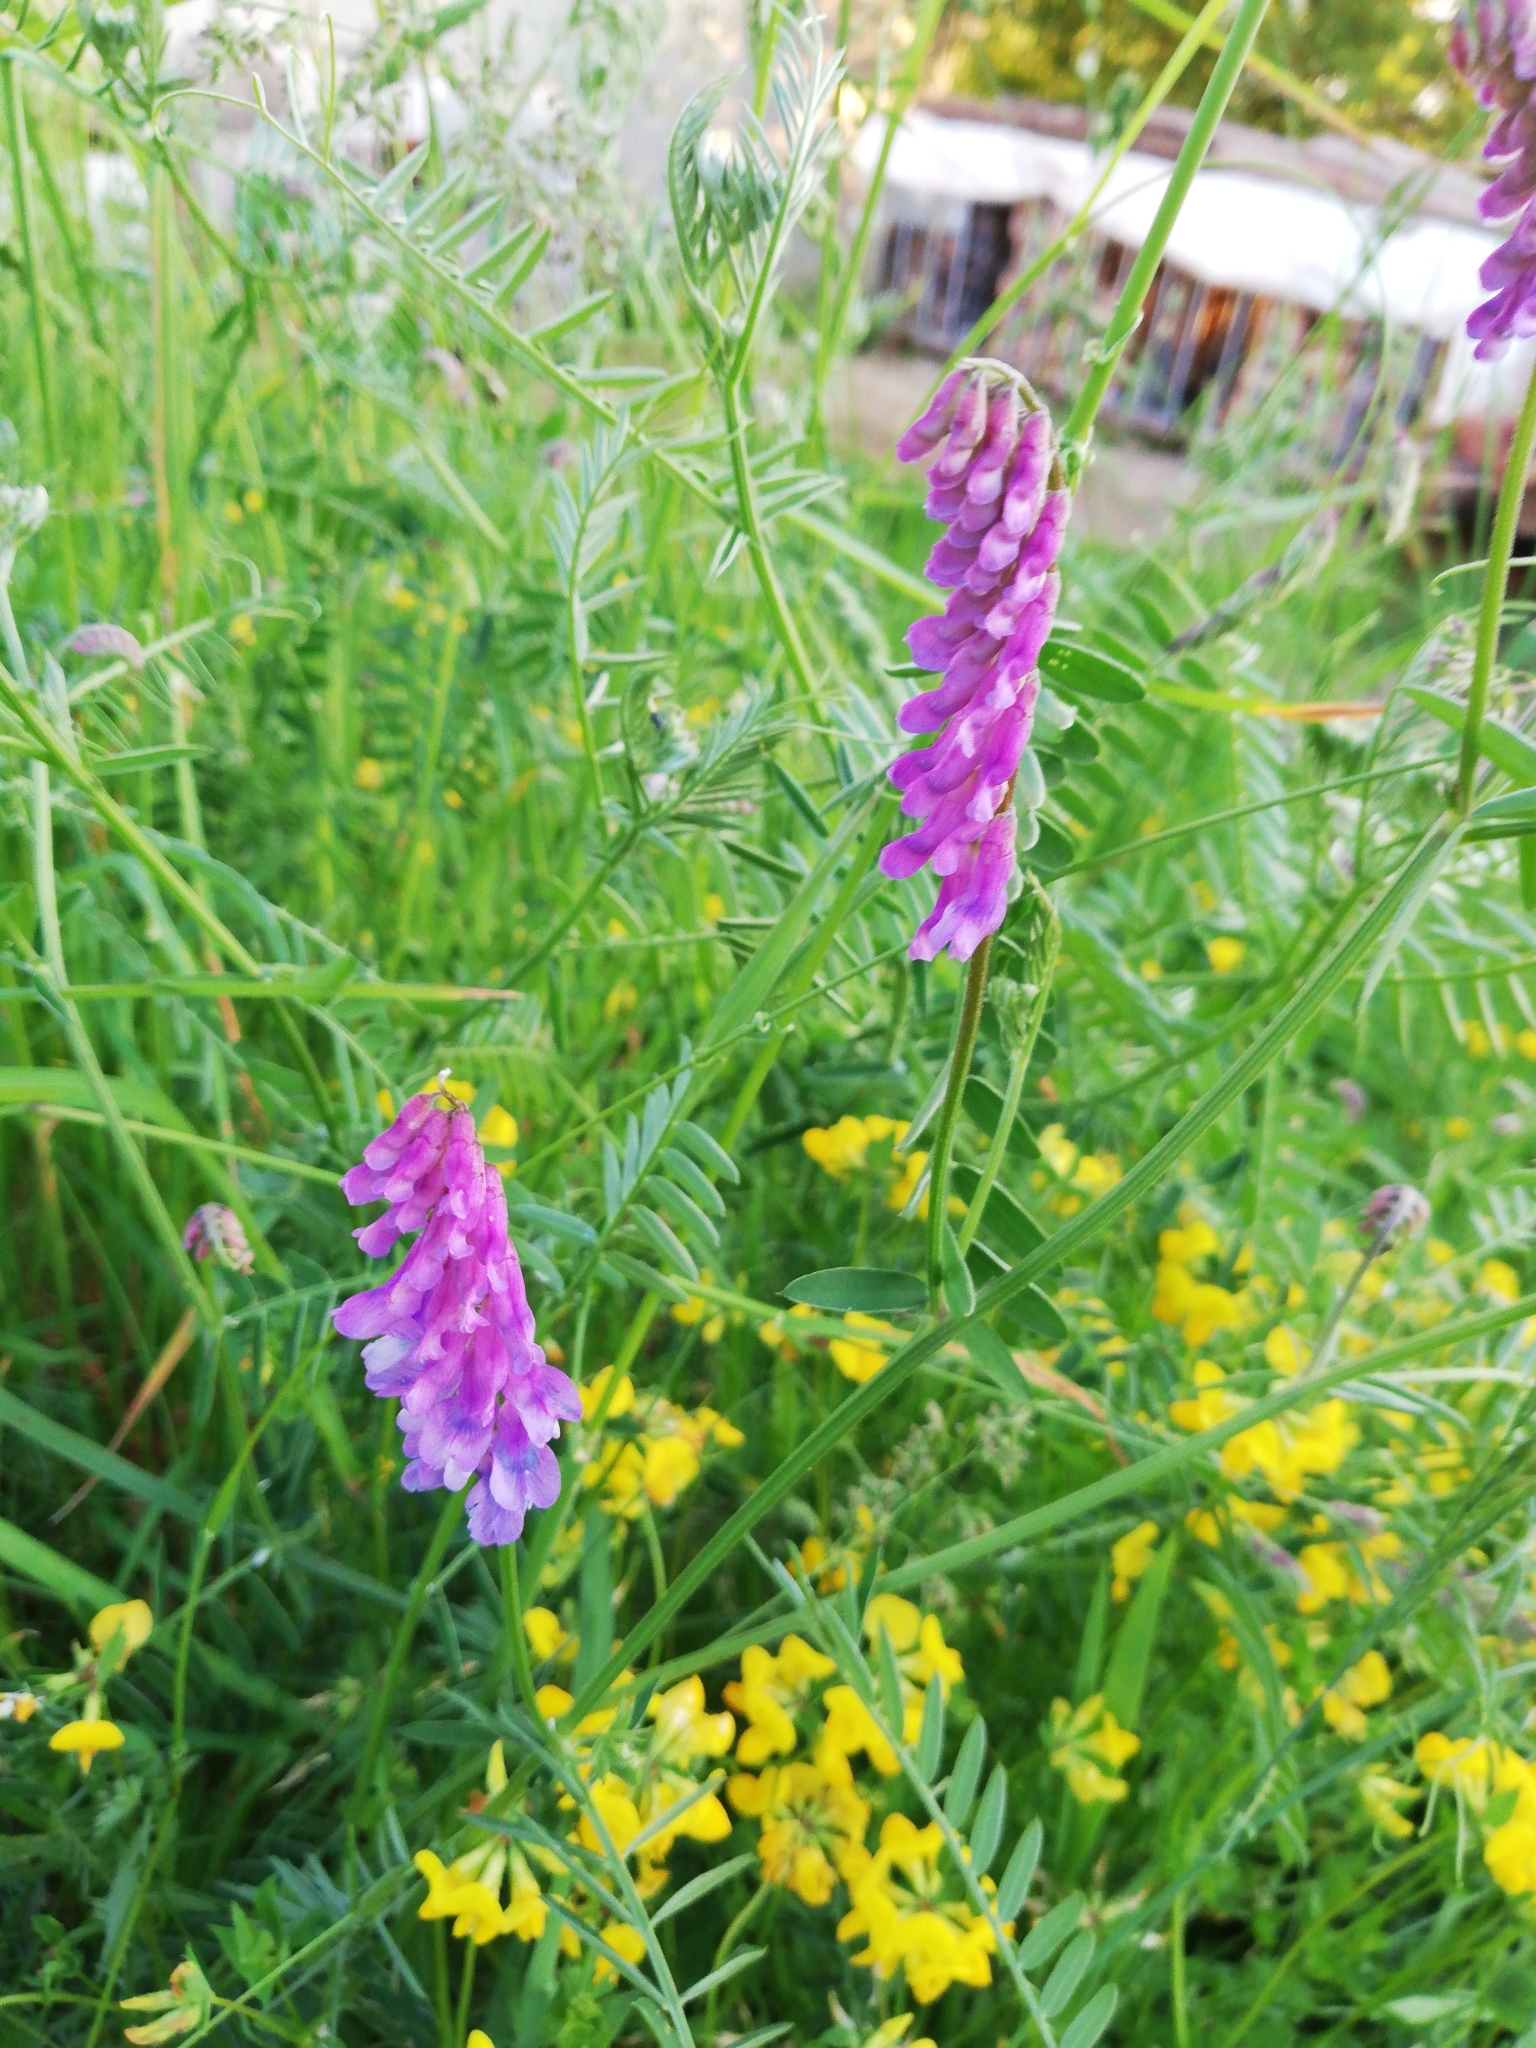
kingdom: Plantae
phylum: Tracheophyta
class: Magnoliopsida
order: Fabales
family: Fabaceae
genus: Vicia
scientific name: Vicia cracca
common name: Bird vetch
